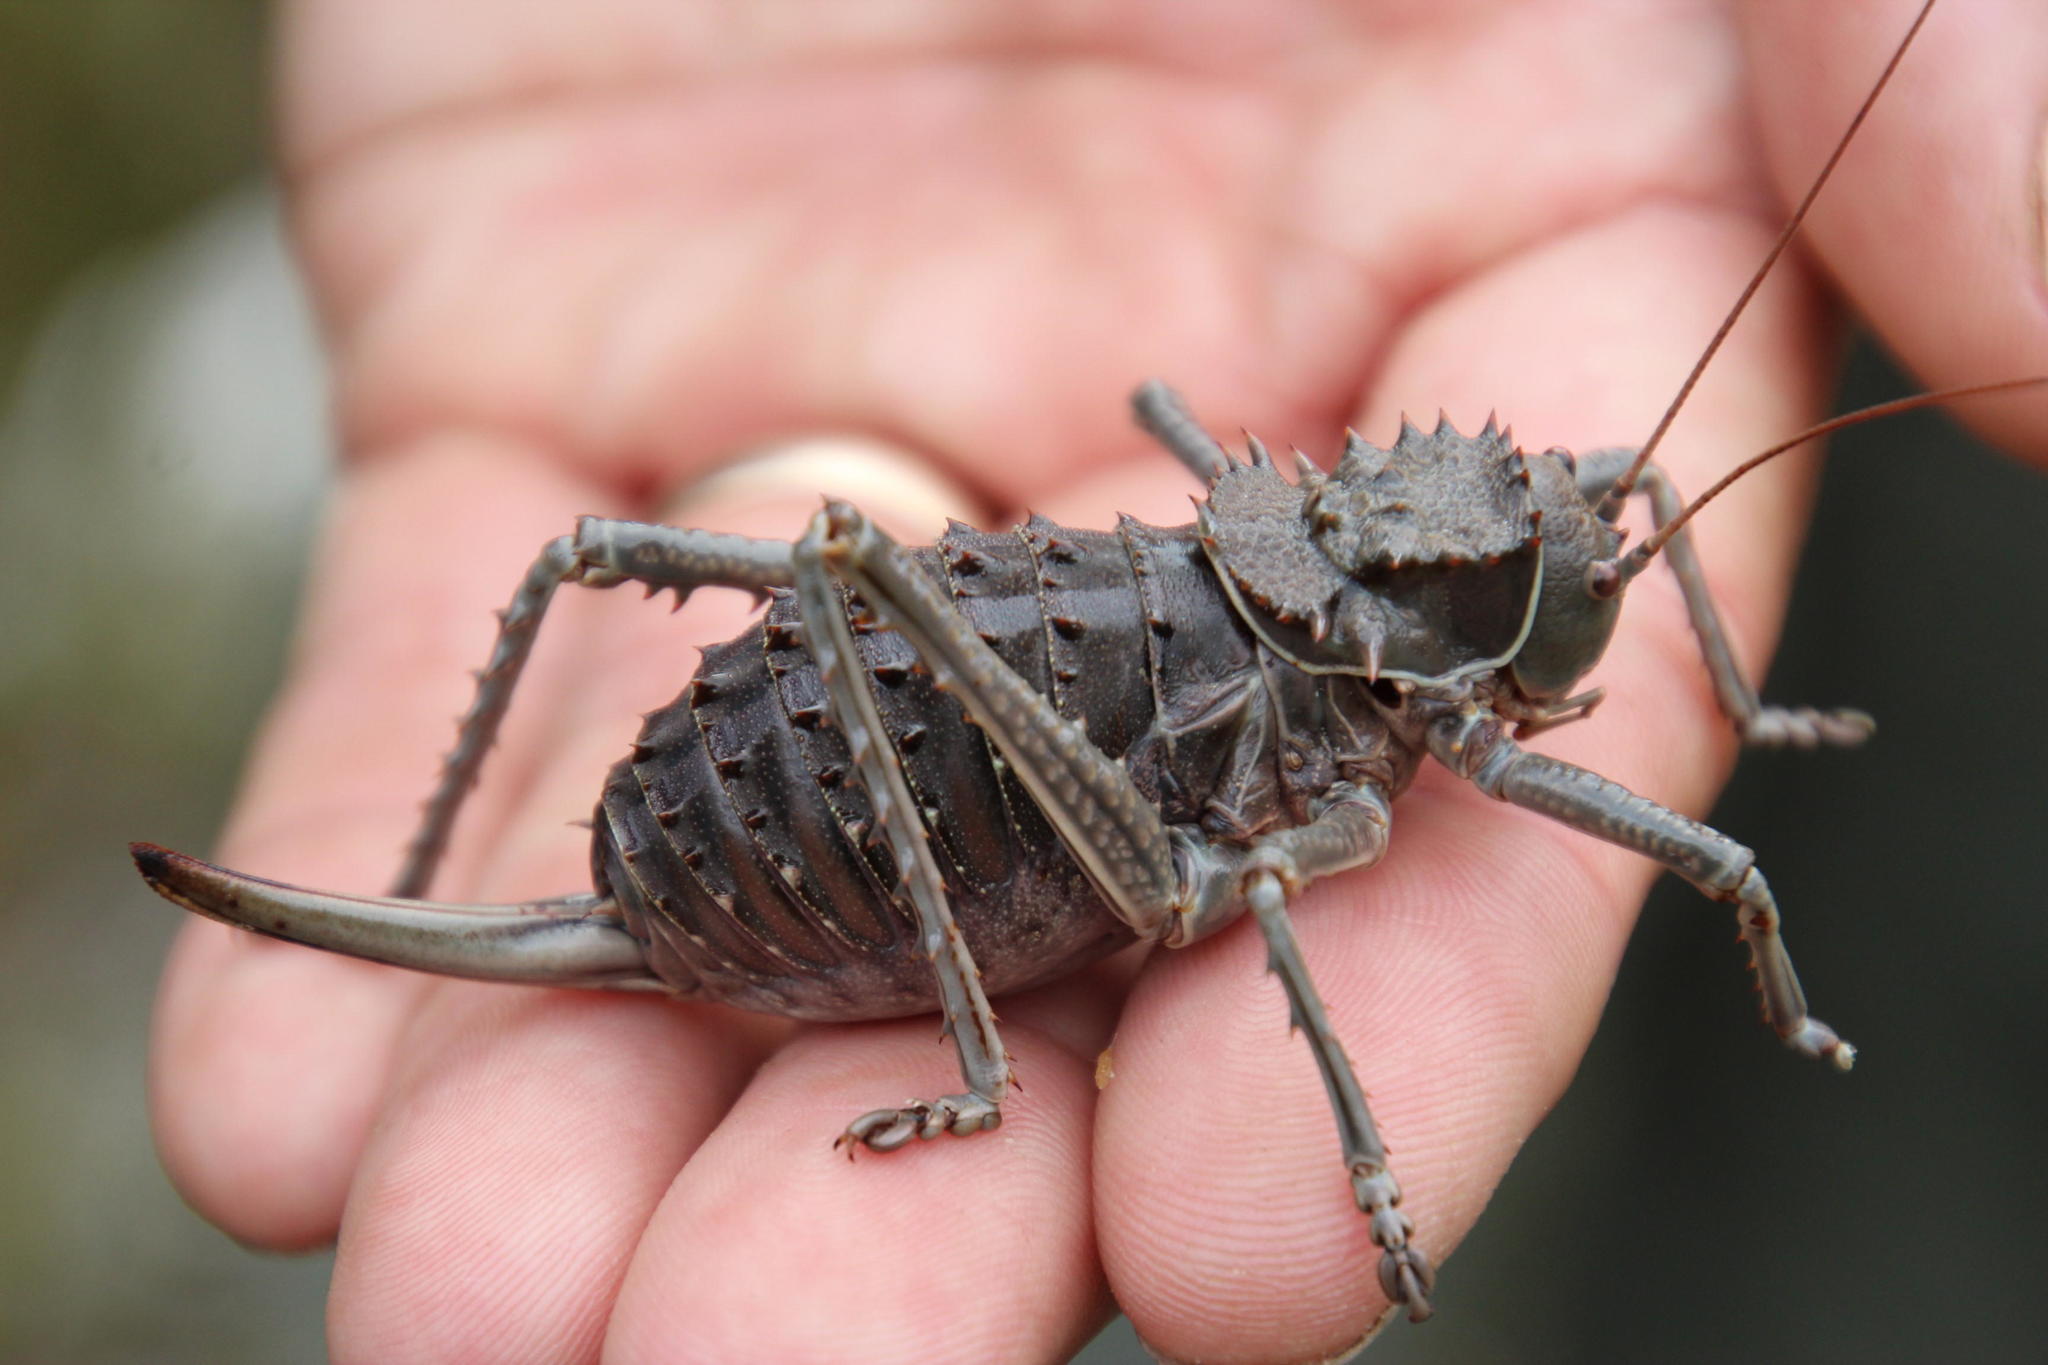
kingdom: Animalia
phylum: Arthropoda
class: Insecta
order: Orthoptera
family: Tettigoniidae
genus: Hetrodes
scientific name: Hetrodes pupus
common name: Koringkriek
